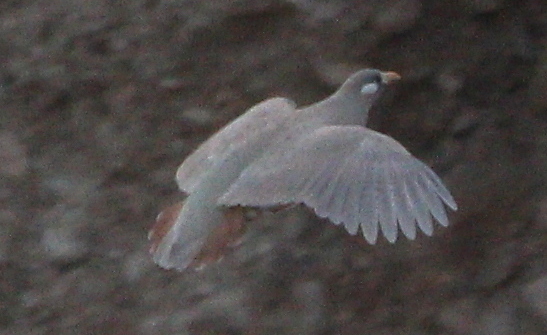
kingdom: Animalia
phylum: Chordata
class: Aves
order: Galliformes
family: Phasianidae
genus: Ammoperdix
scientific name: Ammoperdix heyi
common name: Sand partridge
